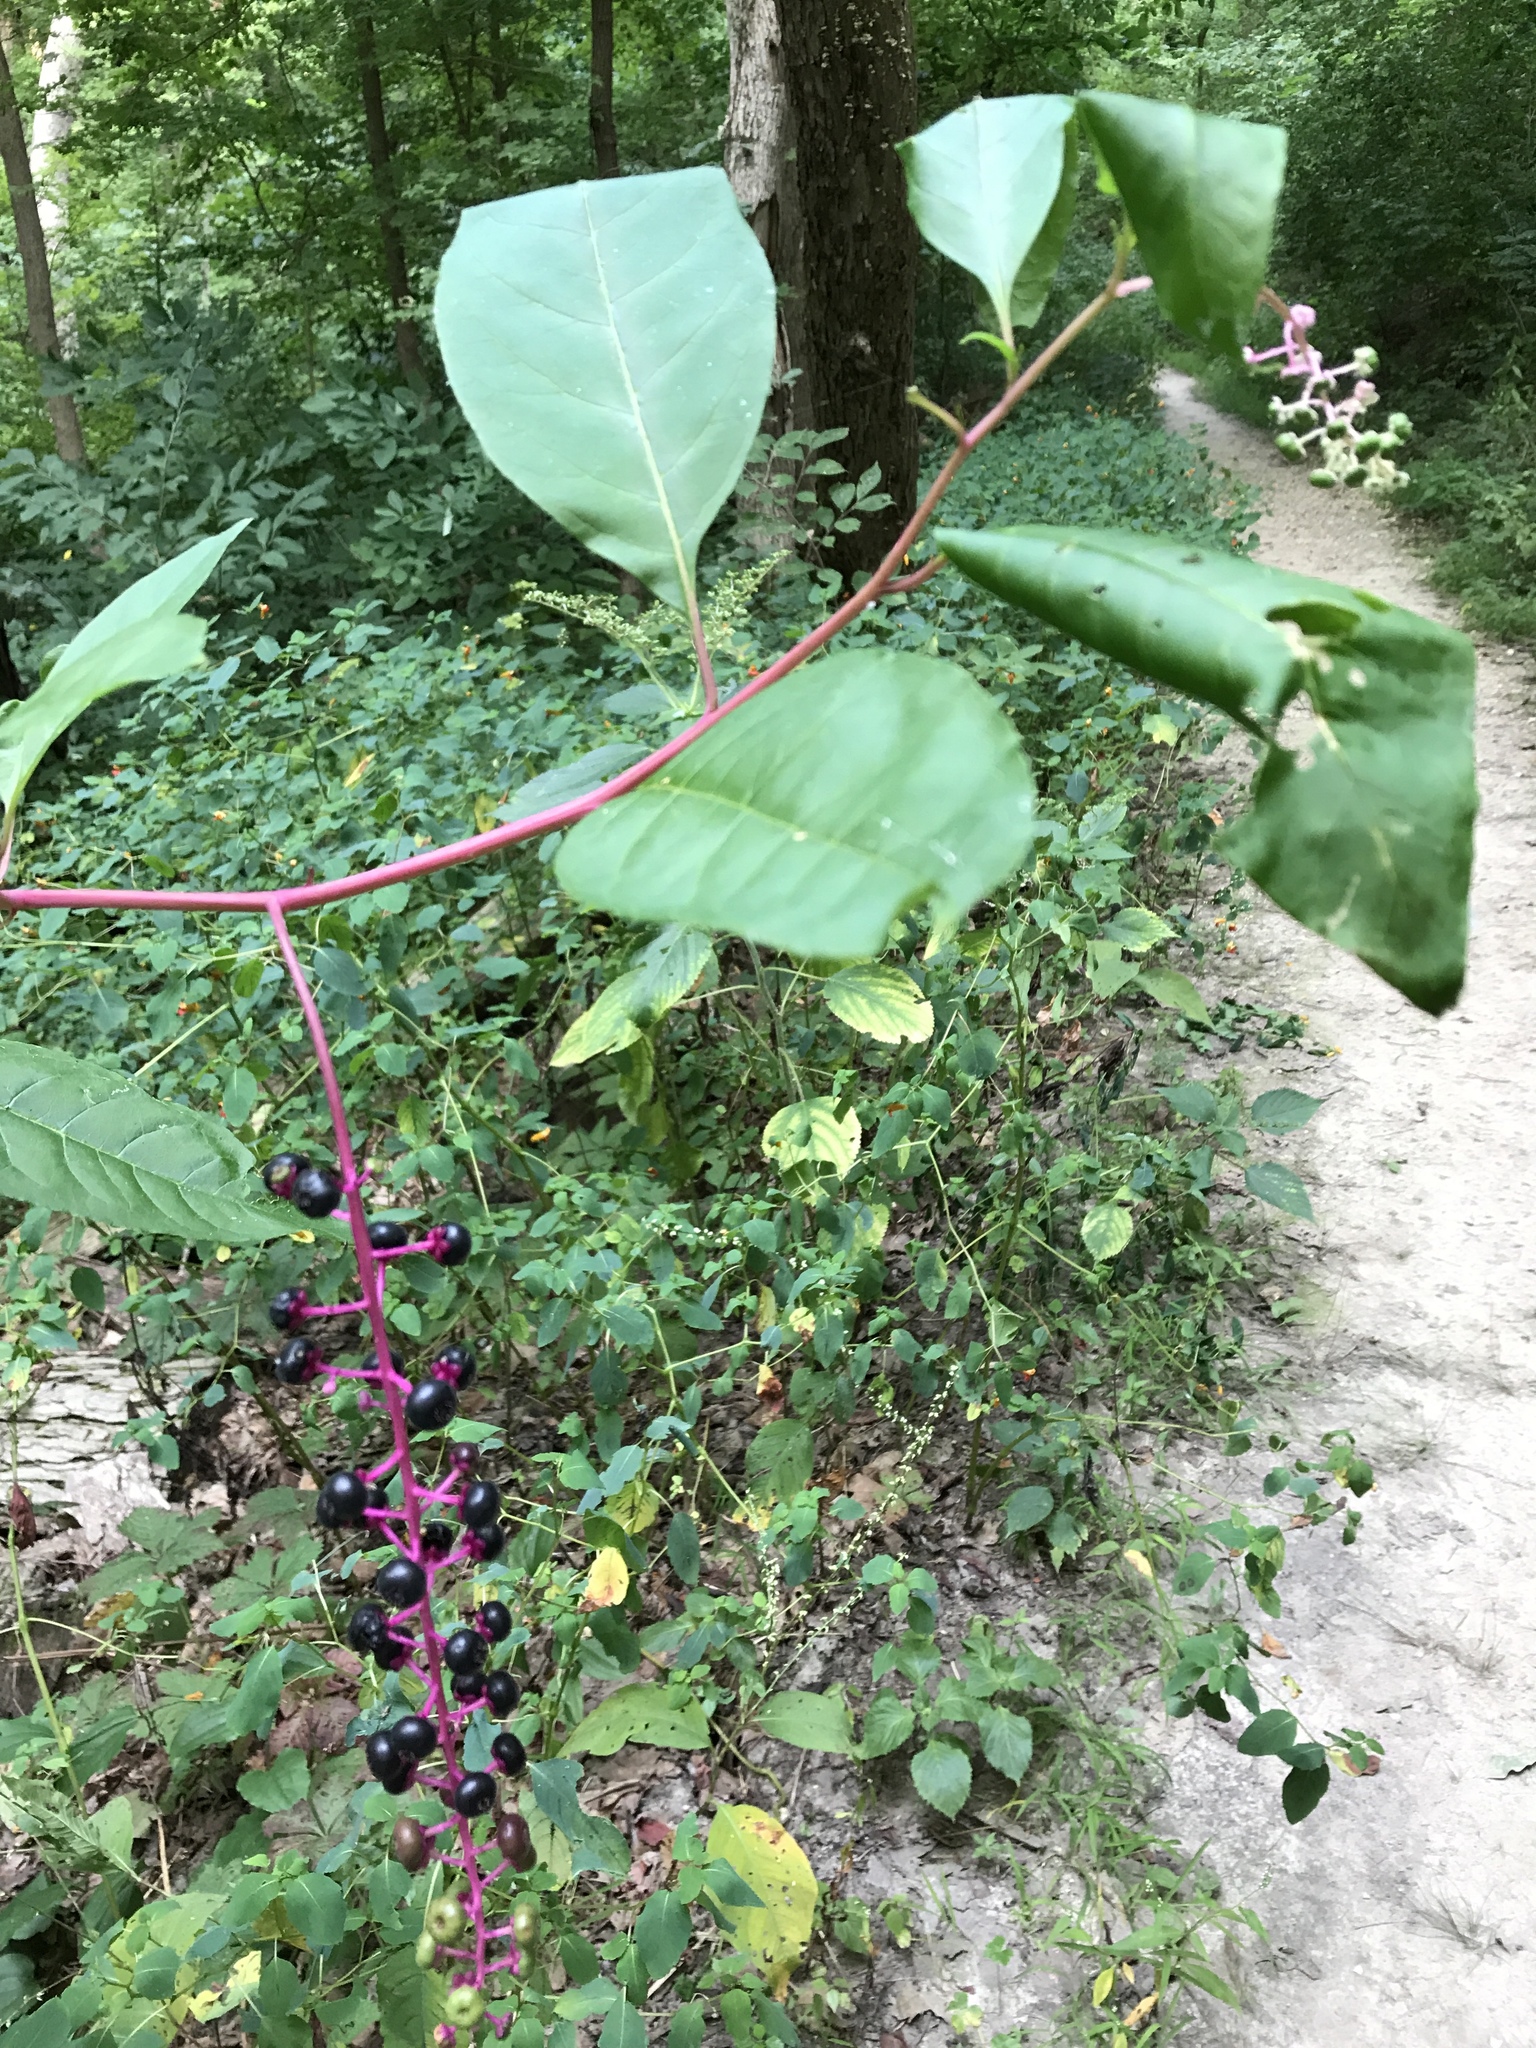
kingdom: Plantae
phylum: Tracheophyta
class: Magnoliopsida
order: Caryophyllales
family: Phytolaccaceae
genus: Phytolacca
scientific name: Phytolacca americana
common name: American pokeweed
